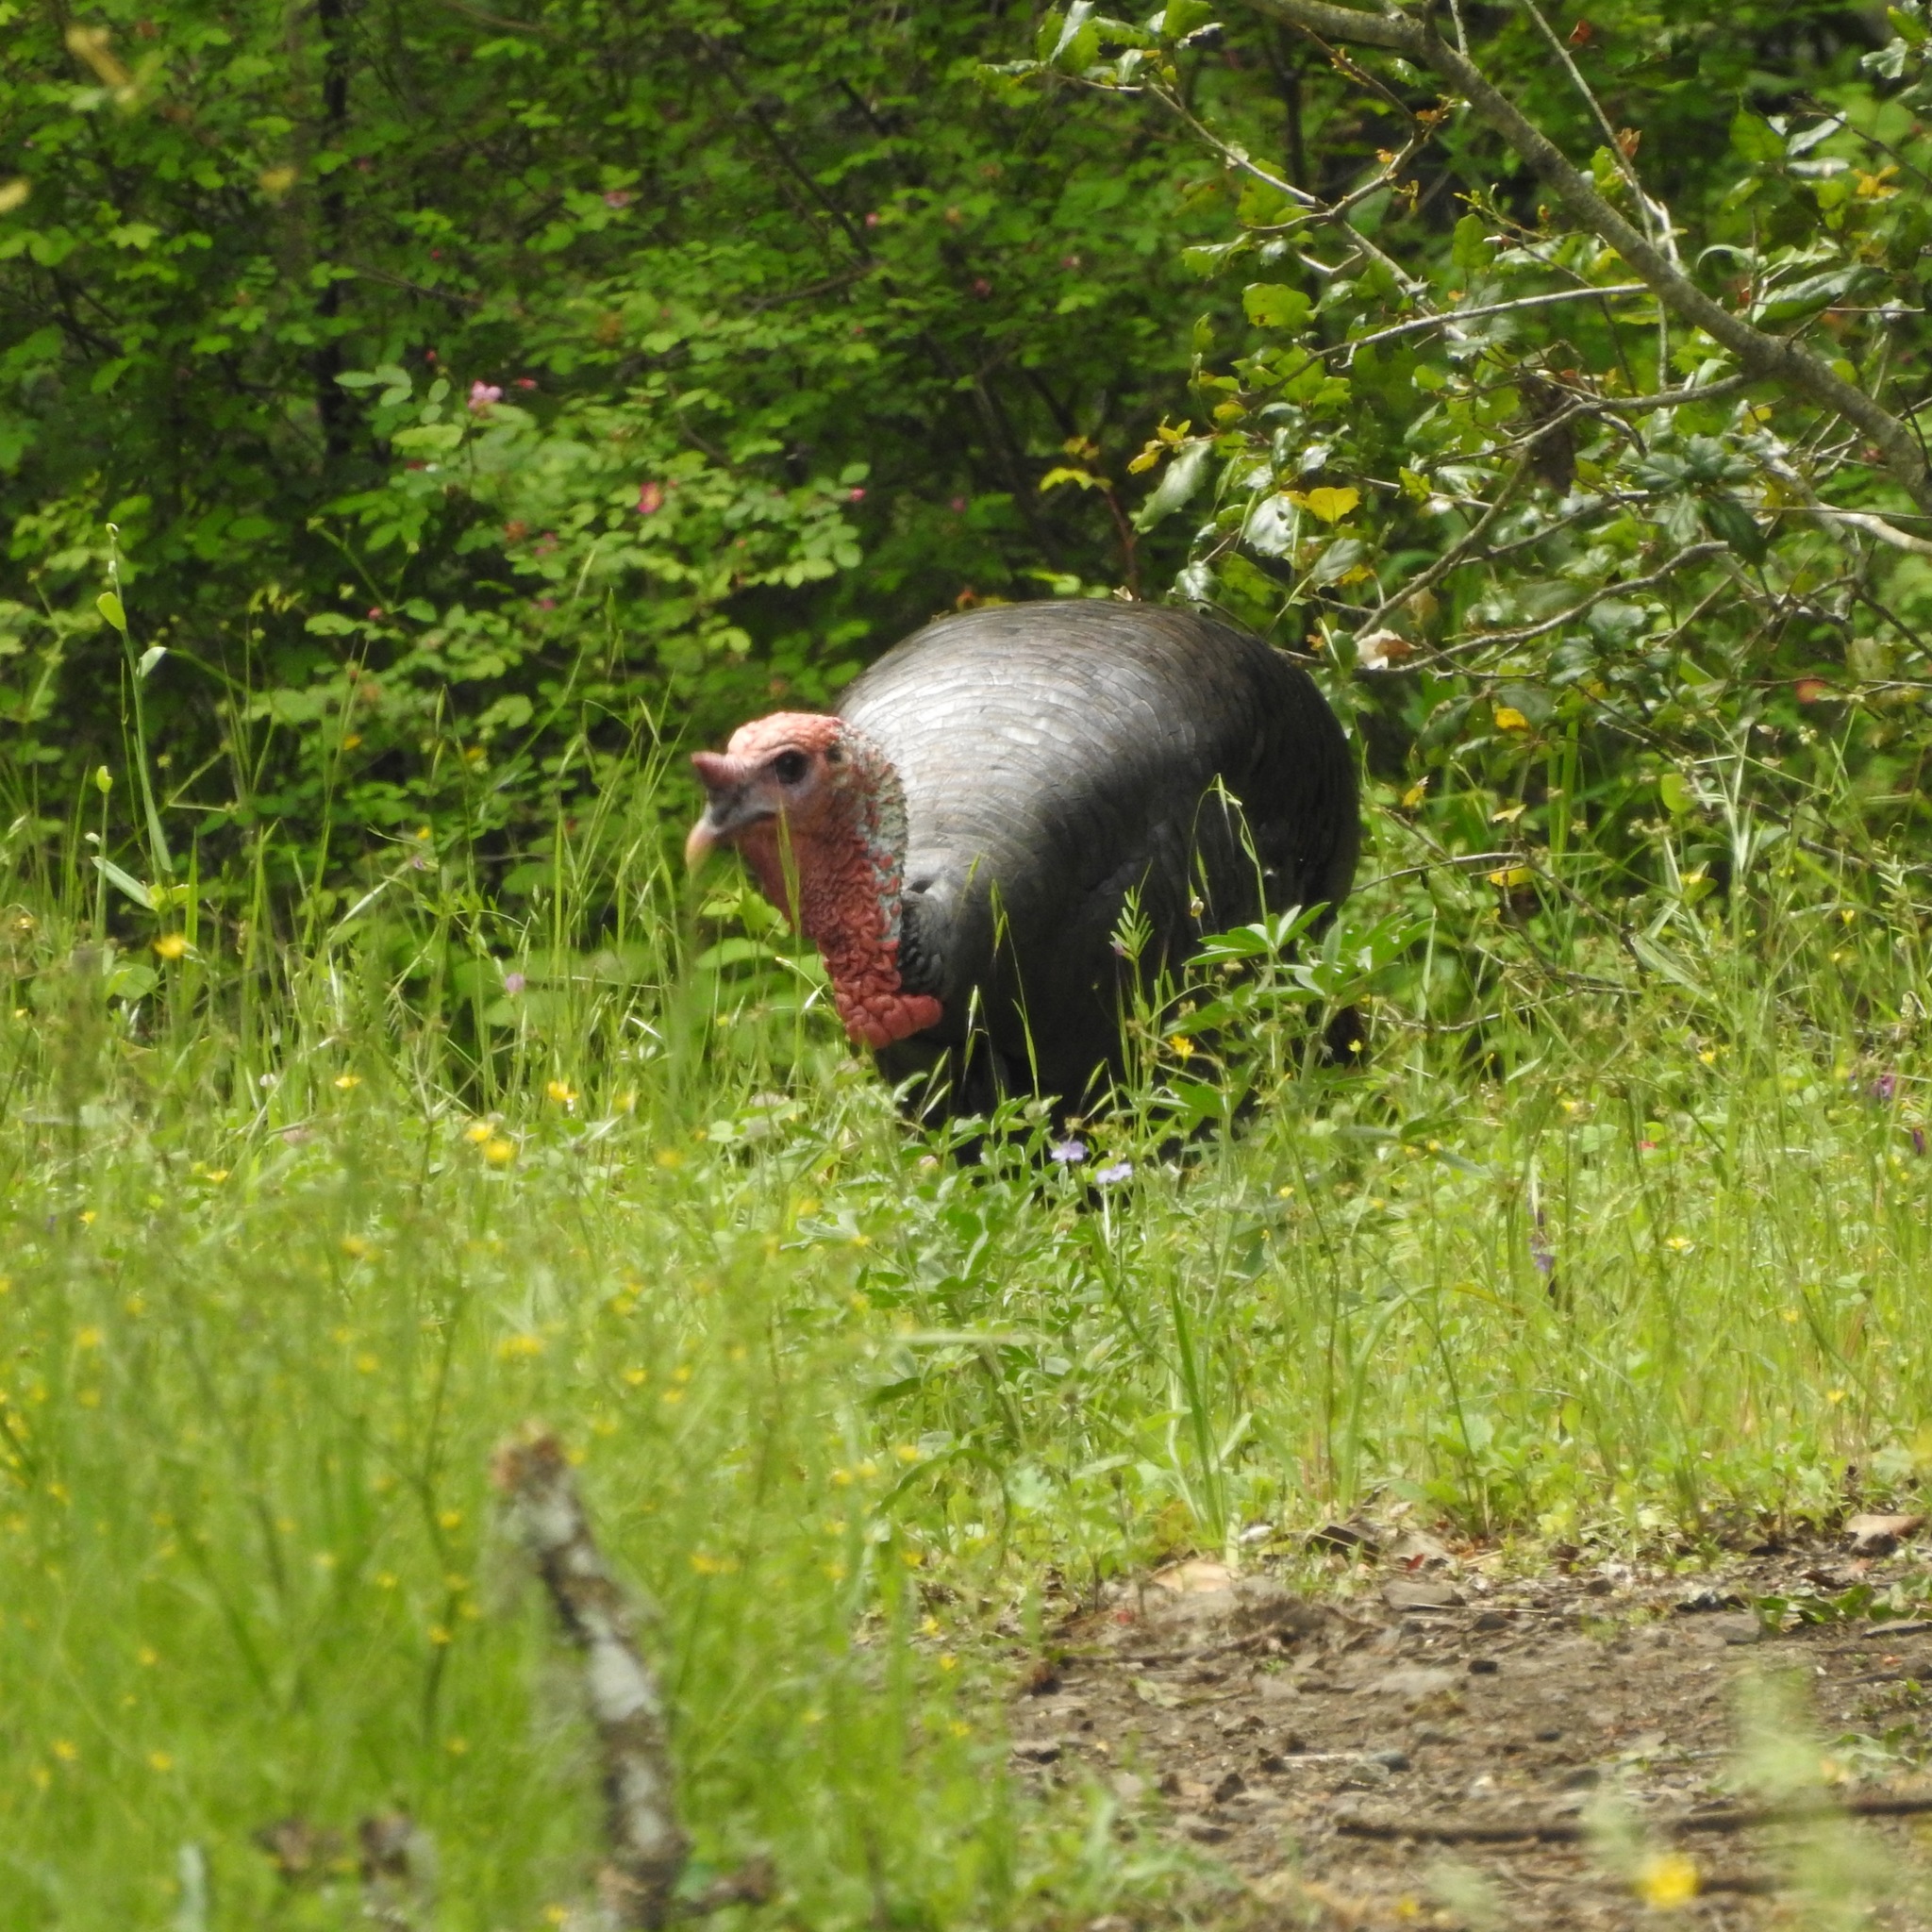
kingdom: Animalia
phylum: Chordata
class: Aves
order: Galliformes
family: Phasianidae
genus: Meleagris
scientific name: Meleagris gallopavo
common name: Wild turkey
